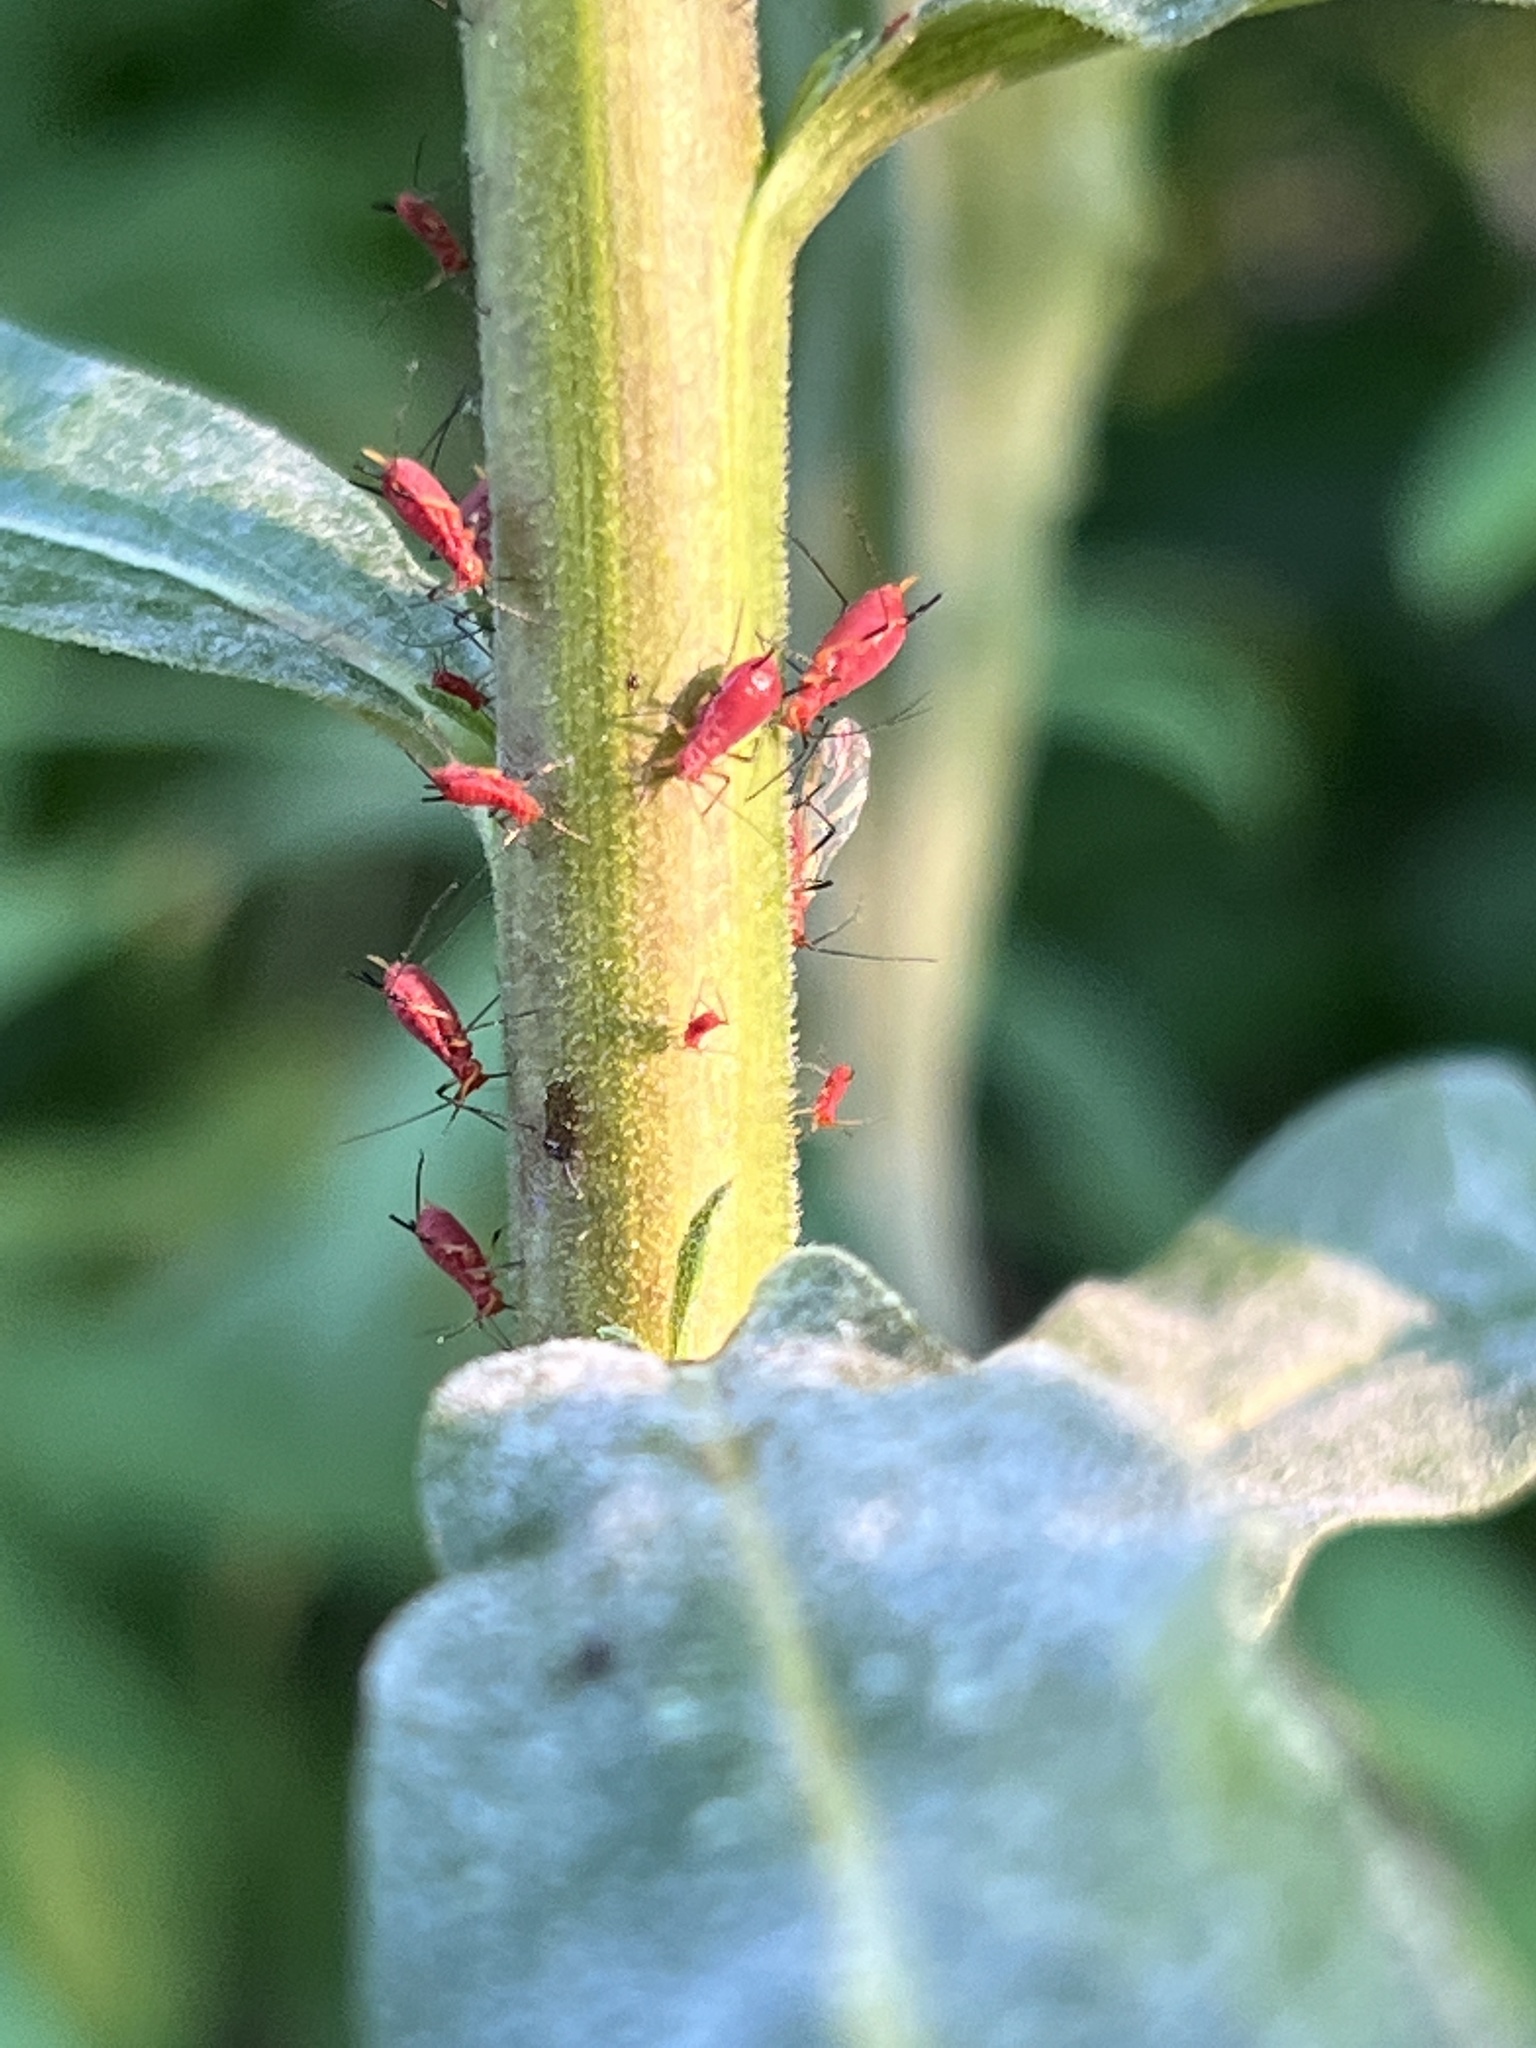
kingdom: Animalia
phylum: Arthropoda
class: Insecta
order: Hemiptera
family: Aphididae
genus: Uroleucon
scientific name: Uroleucon
